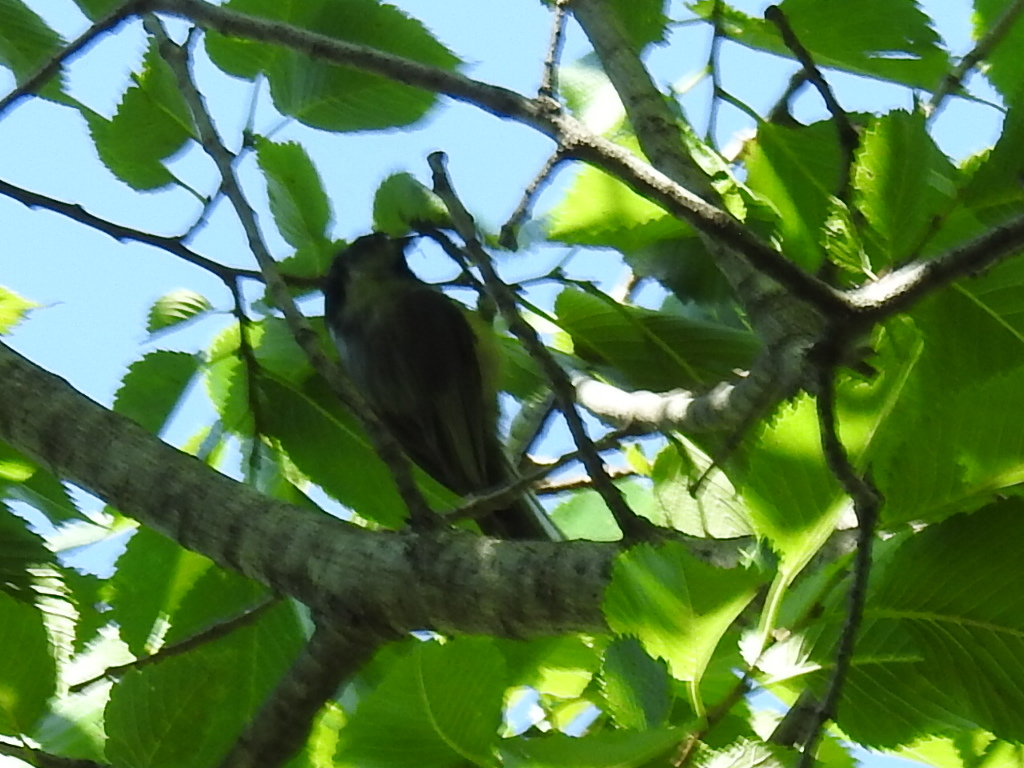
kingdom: Animalia
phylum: Chordata
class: Aves
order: Passeriformes
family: Paridae
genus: Poecile
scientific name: Poecile carolinensis
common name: Carolina chickadee
